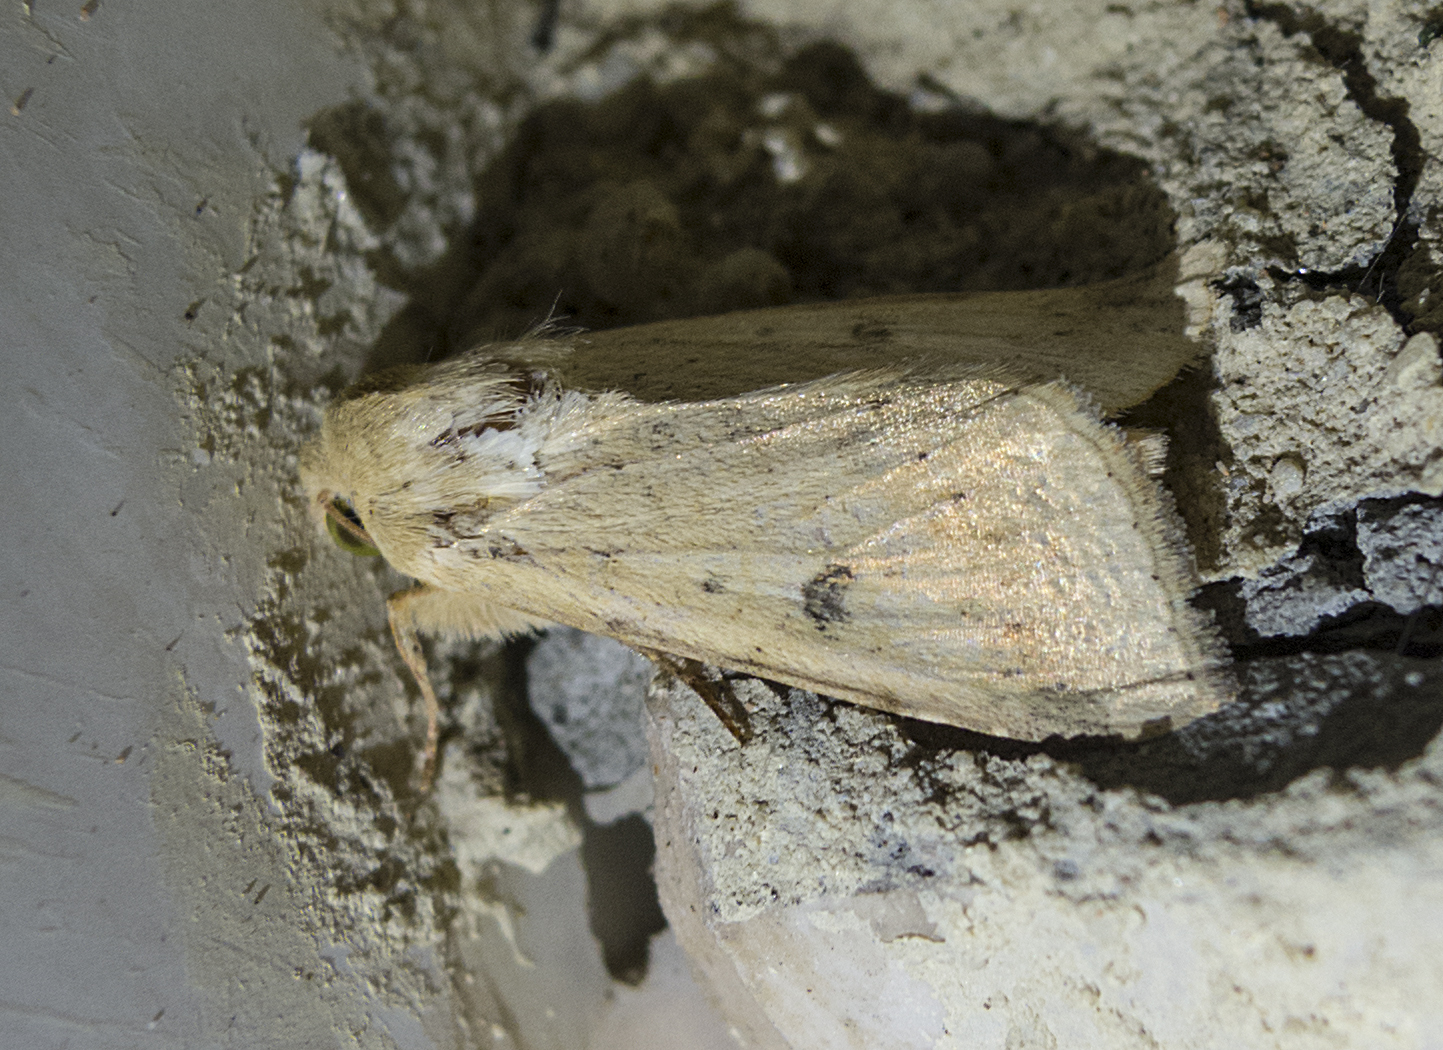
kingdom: Animalia
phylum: Arthropoda
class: Insecta
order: Lepidoptera
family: Noctuidae
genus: Helicoverpa
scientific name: Helicoverpa armigera
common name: Cotton bollworm
